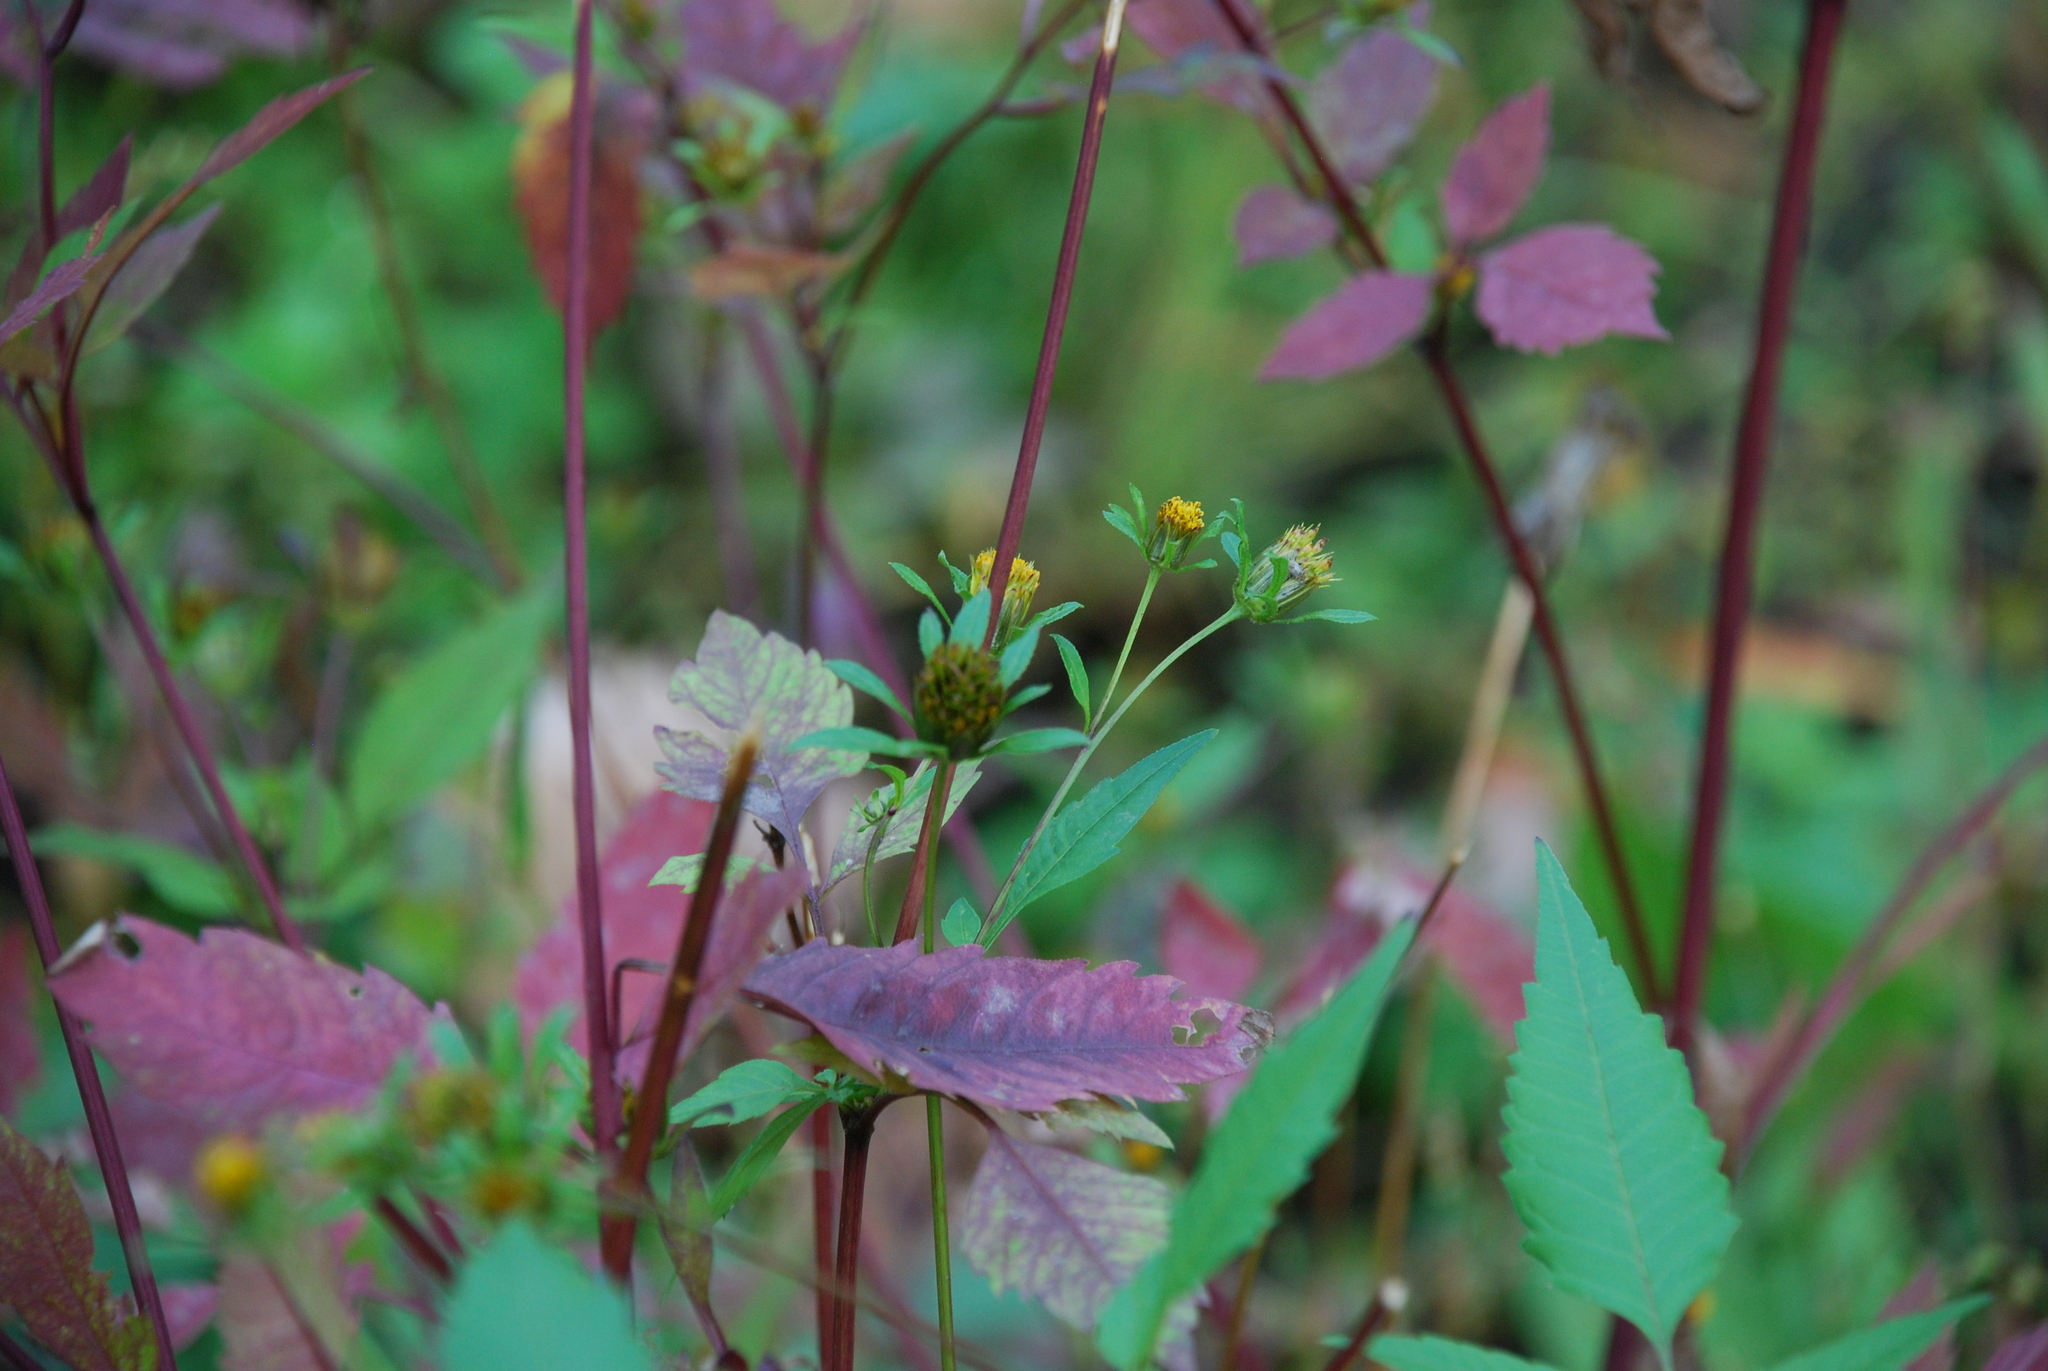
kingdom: Plantae
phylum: Tracheophyta
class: Magnoliopsida
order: Asterales
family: Asteraceae
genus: Bidens
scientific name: Bidens frondosa
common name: Beggarticks
